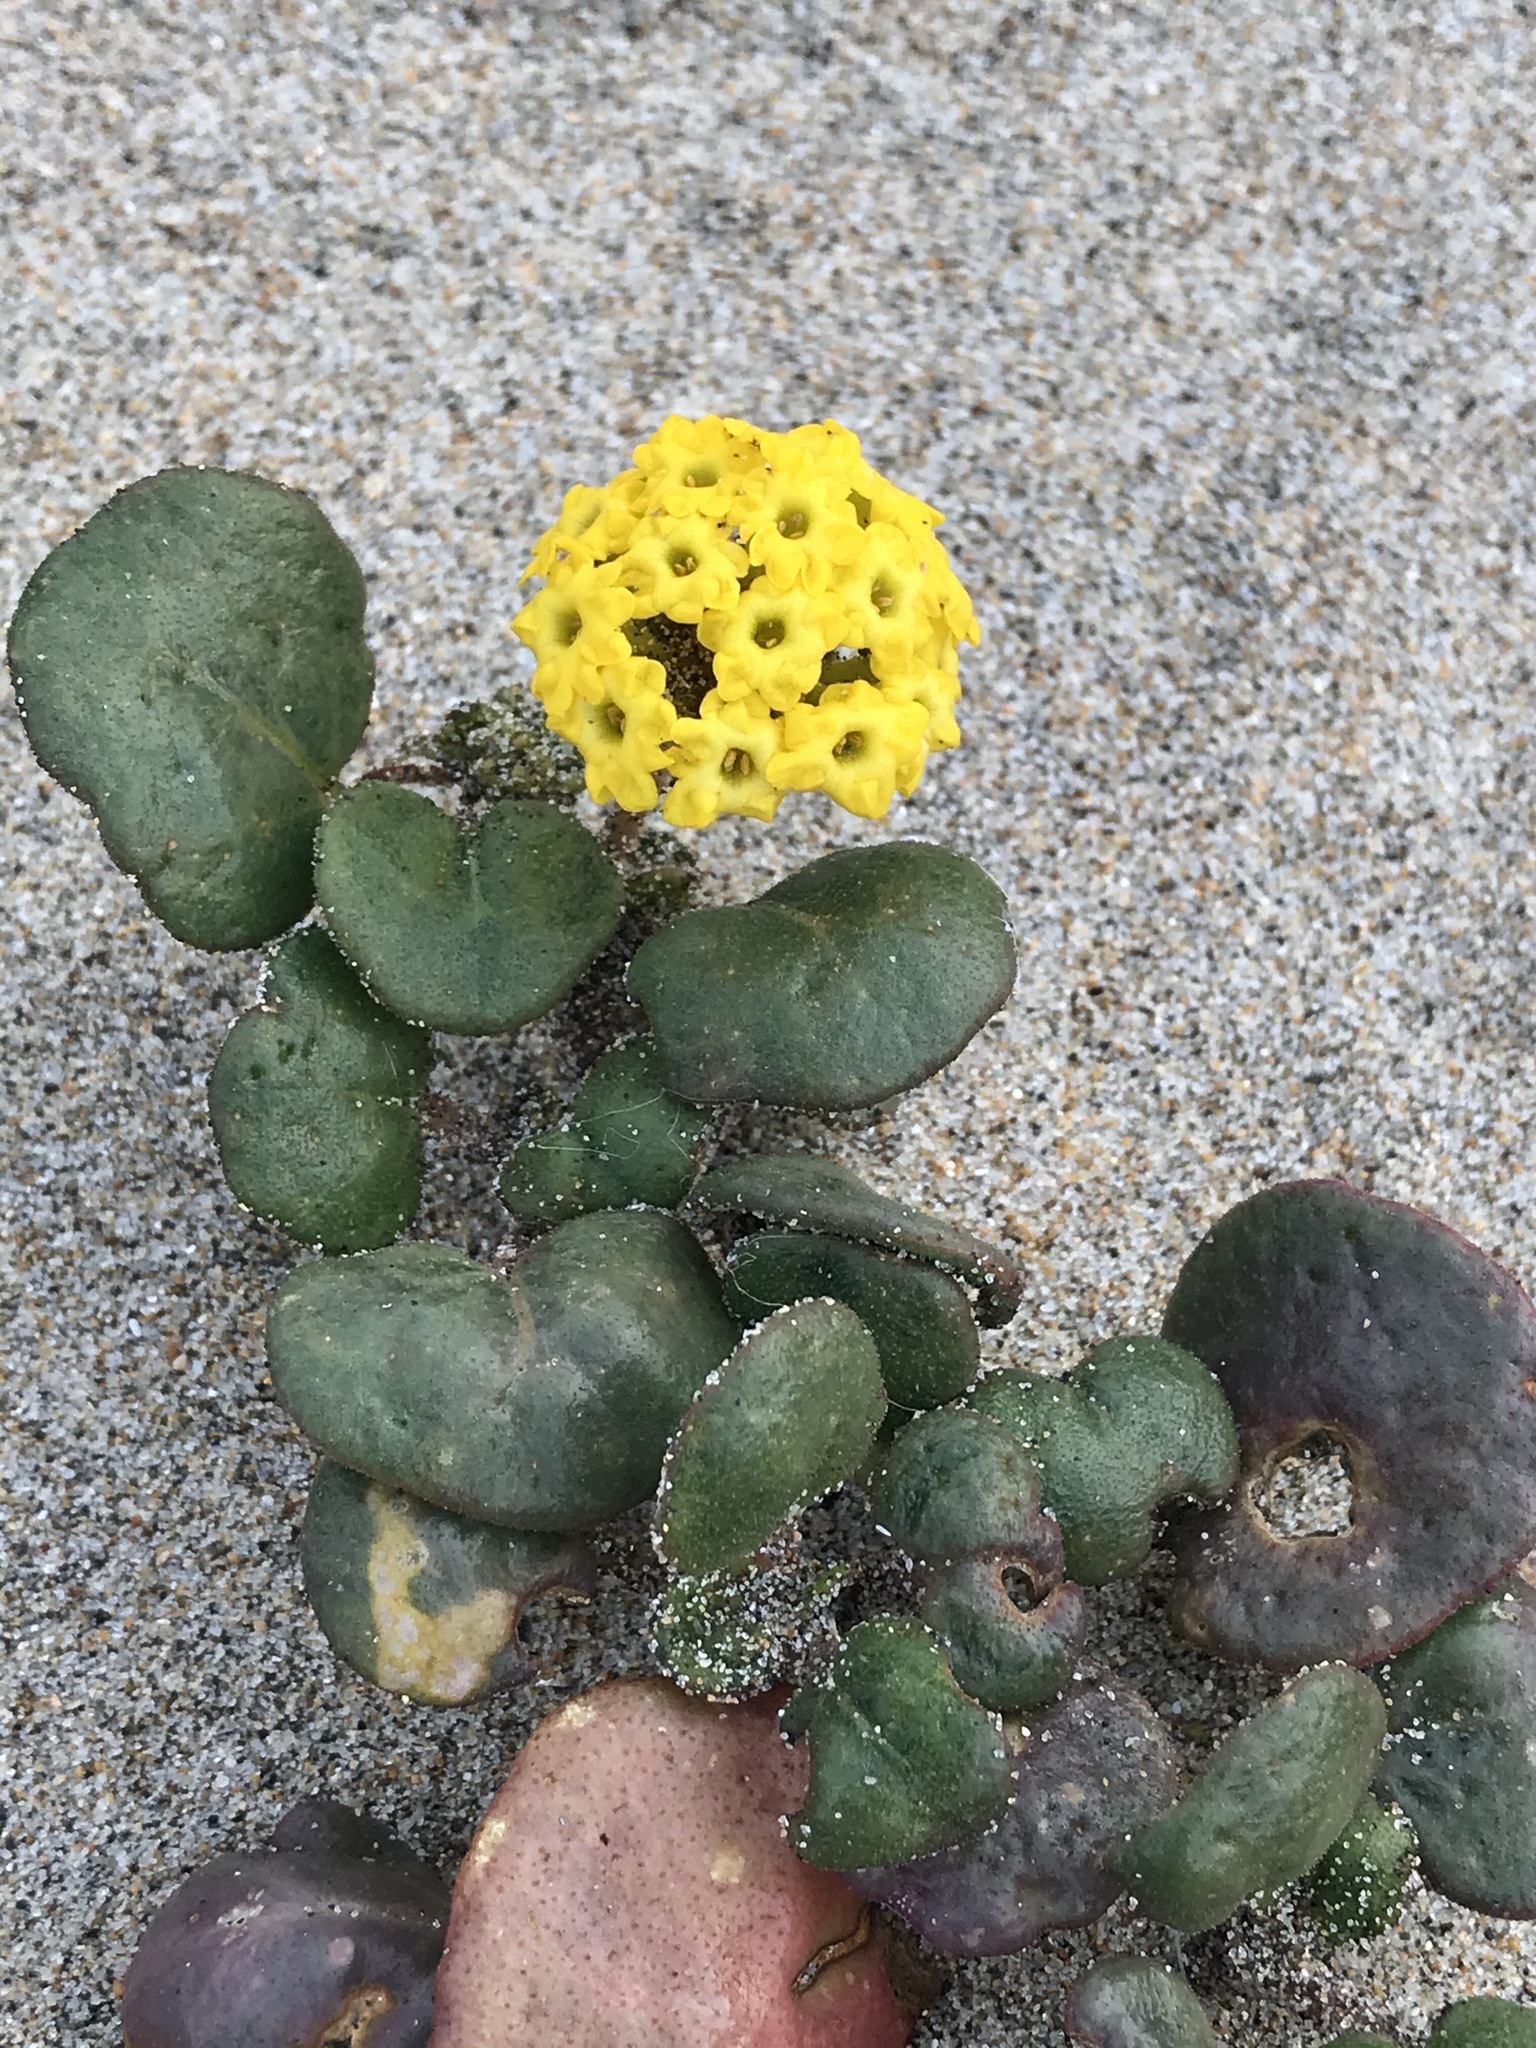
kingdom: Plantae
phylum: Tracheophyta
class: Magnoliopsida
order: Caryophyllales
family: Nyctaginaceae
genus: Abronia
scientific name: Abronia latifolia
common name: Yellow sand-verbena
